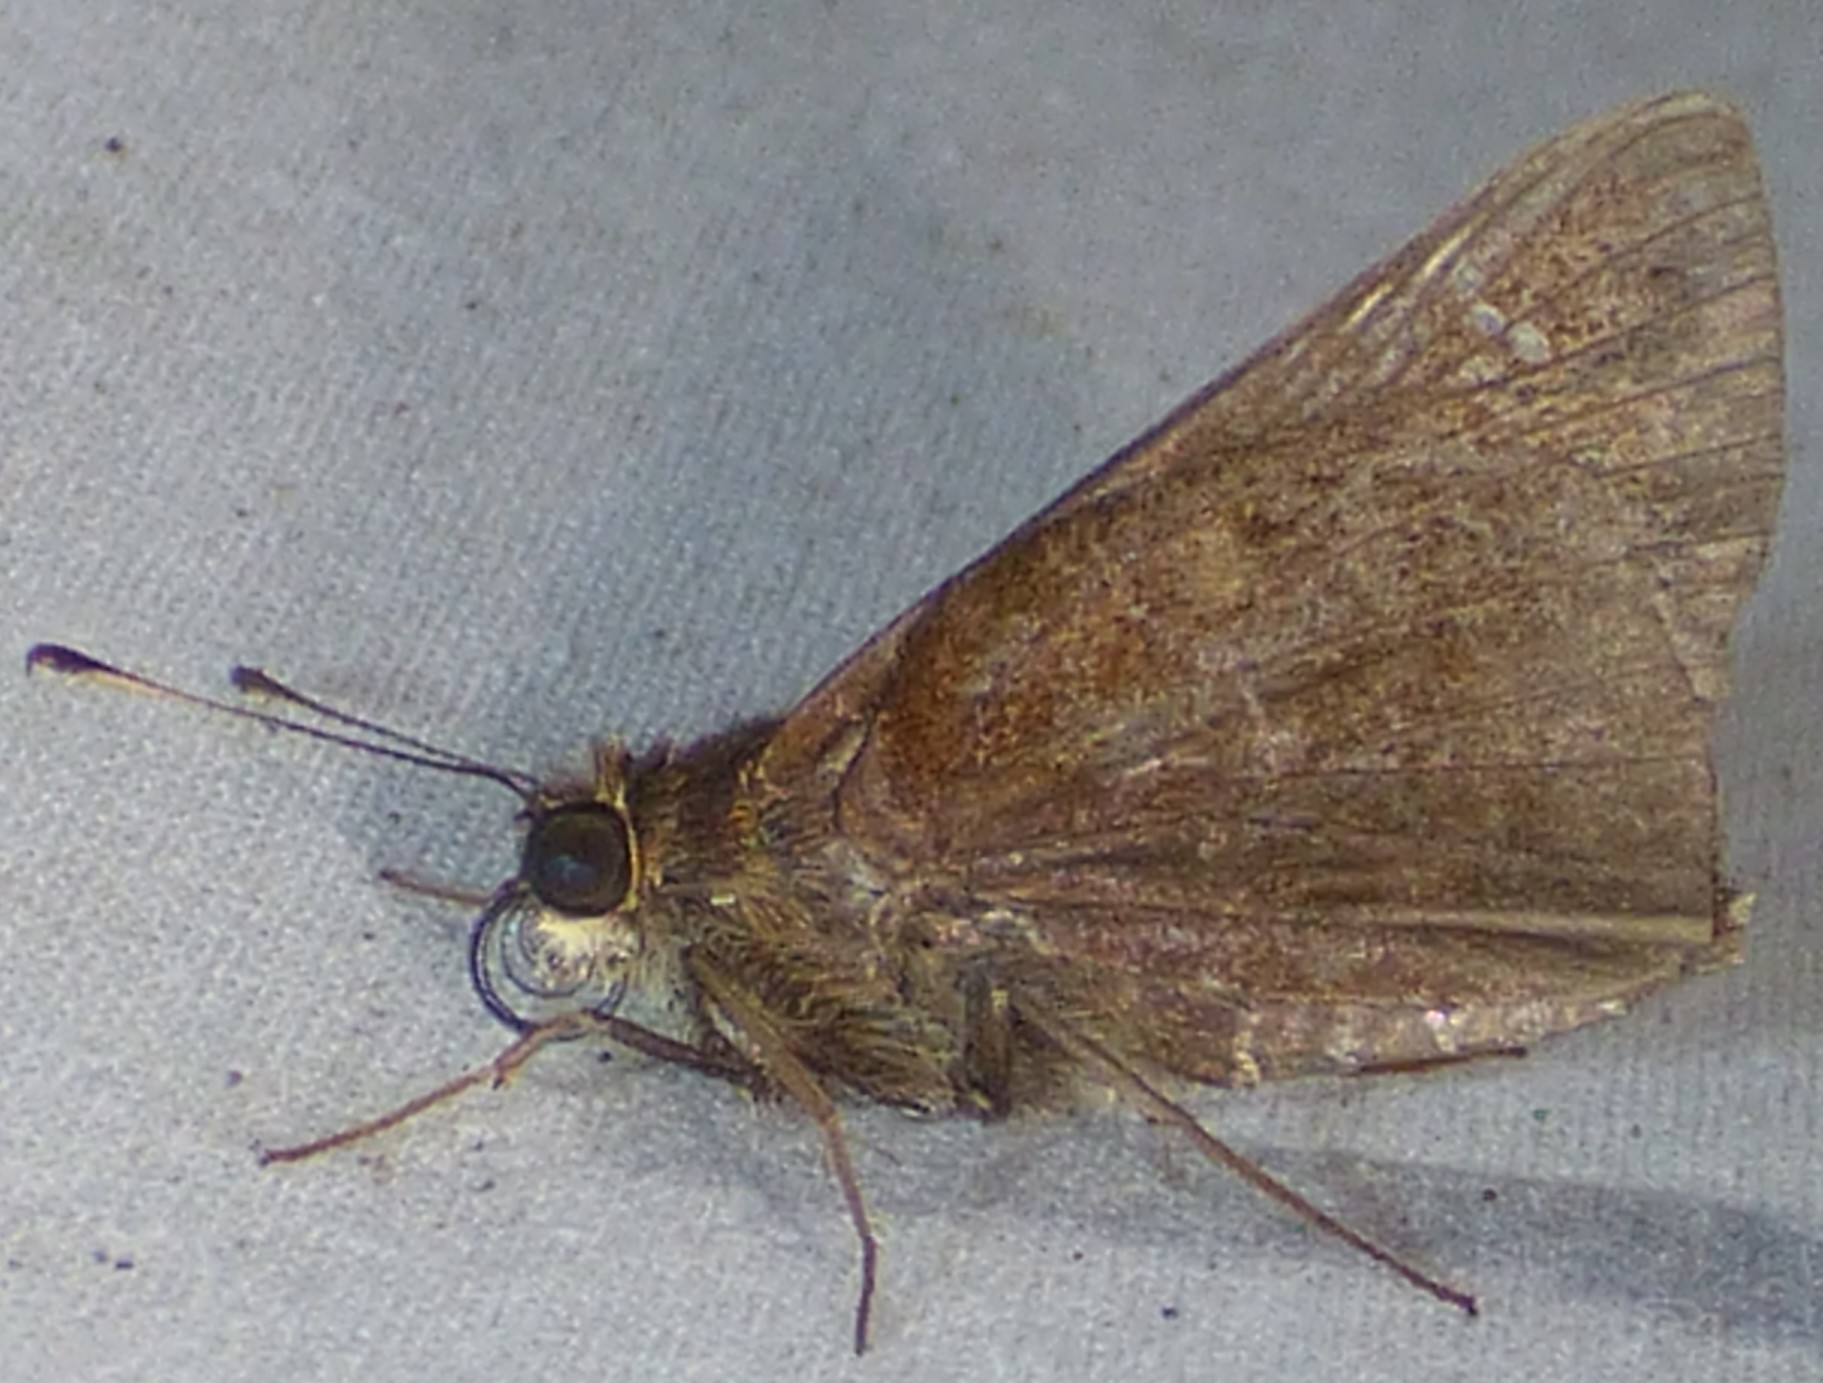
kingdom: Animalia
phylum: Arthropoda
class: Insecta
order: Lepidoptera
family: Hesperiidae
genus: Lerema
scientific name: Lerema accius
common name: Clouded skipper
